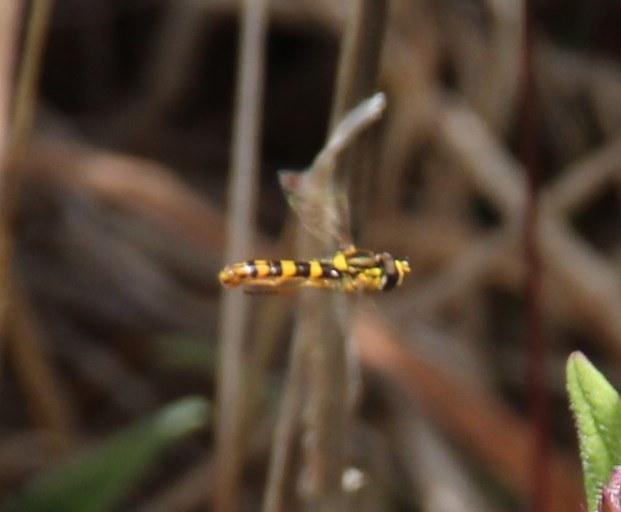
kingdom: Animalia
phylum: Arthropoda
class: Insecta
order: Diptera
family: Syrphidae
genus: Sphaerophoria
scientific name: Sphaerophoria scripta
